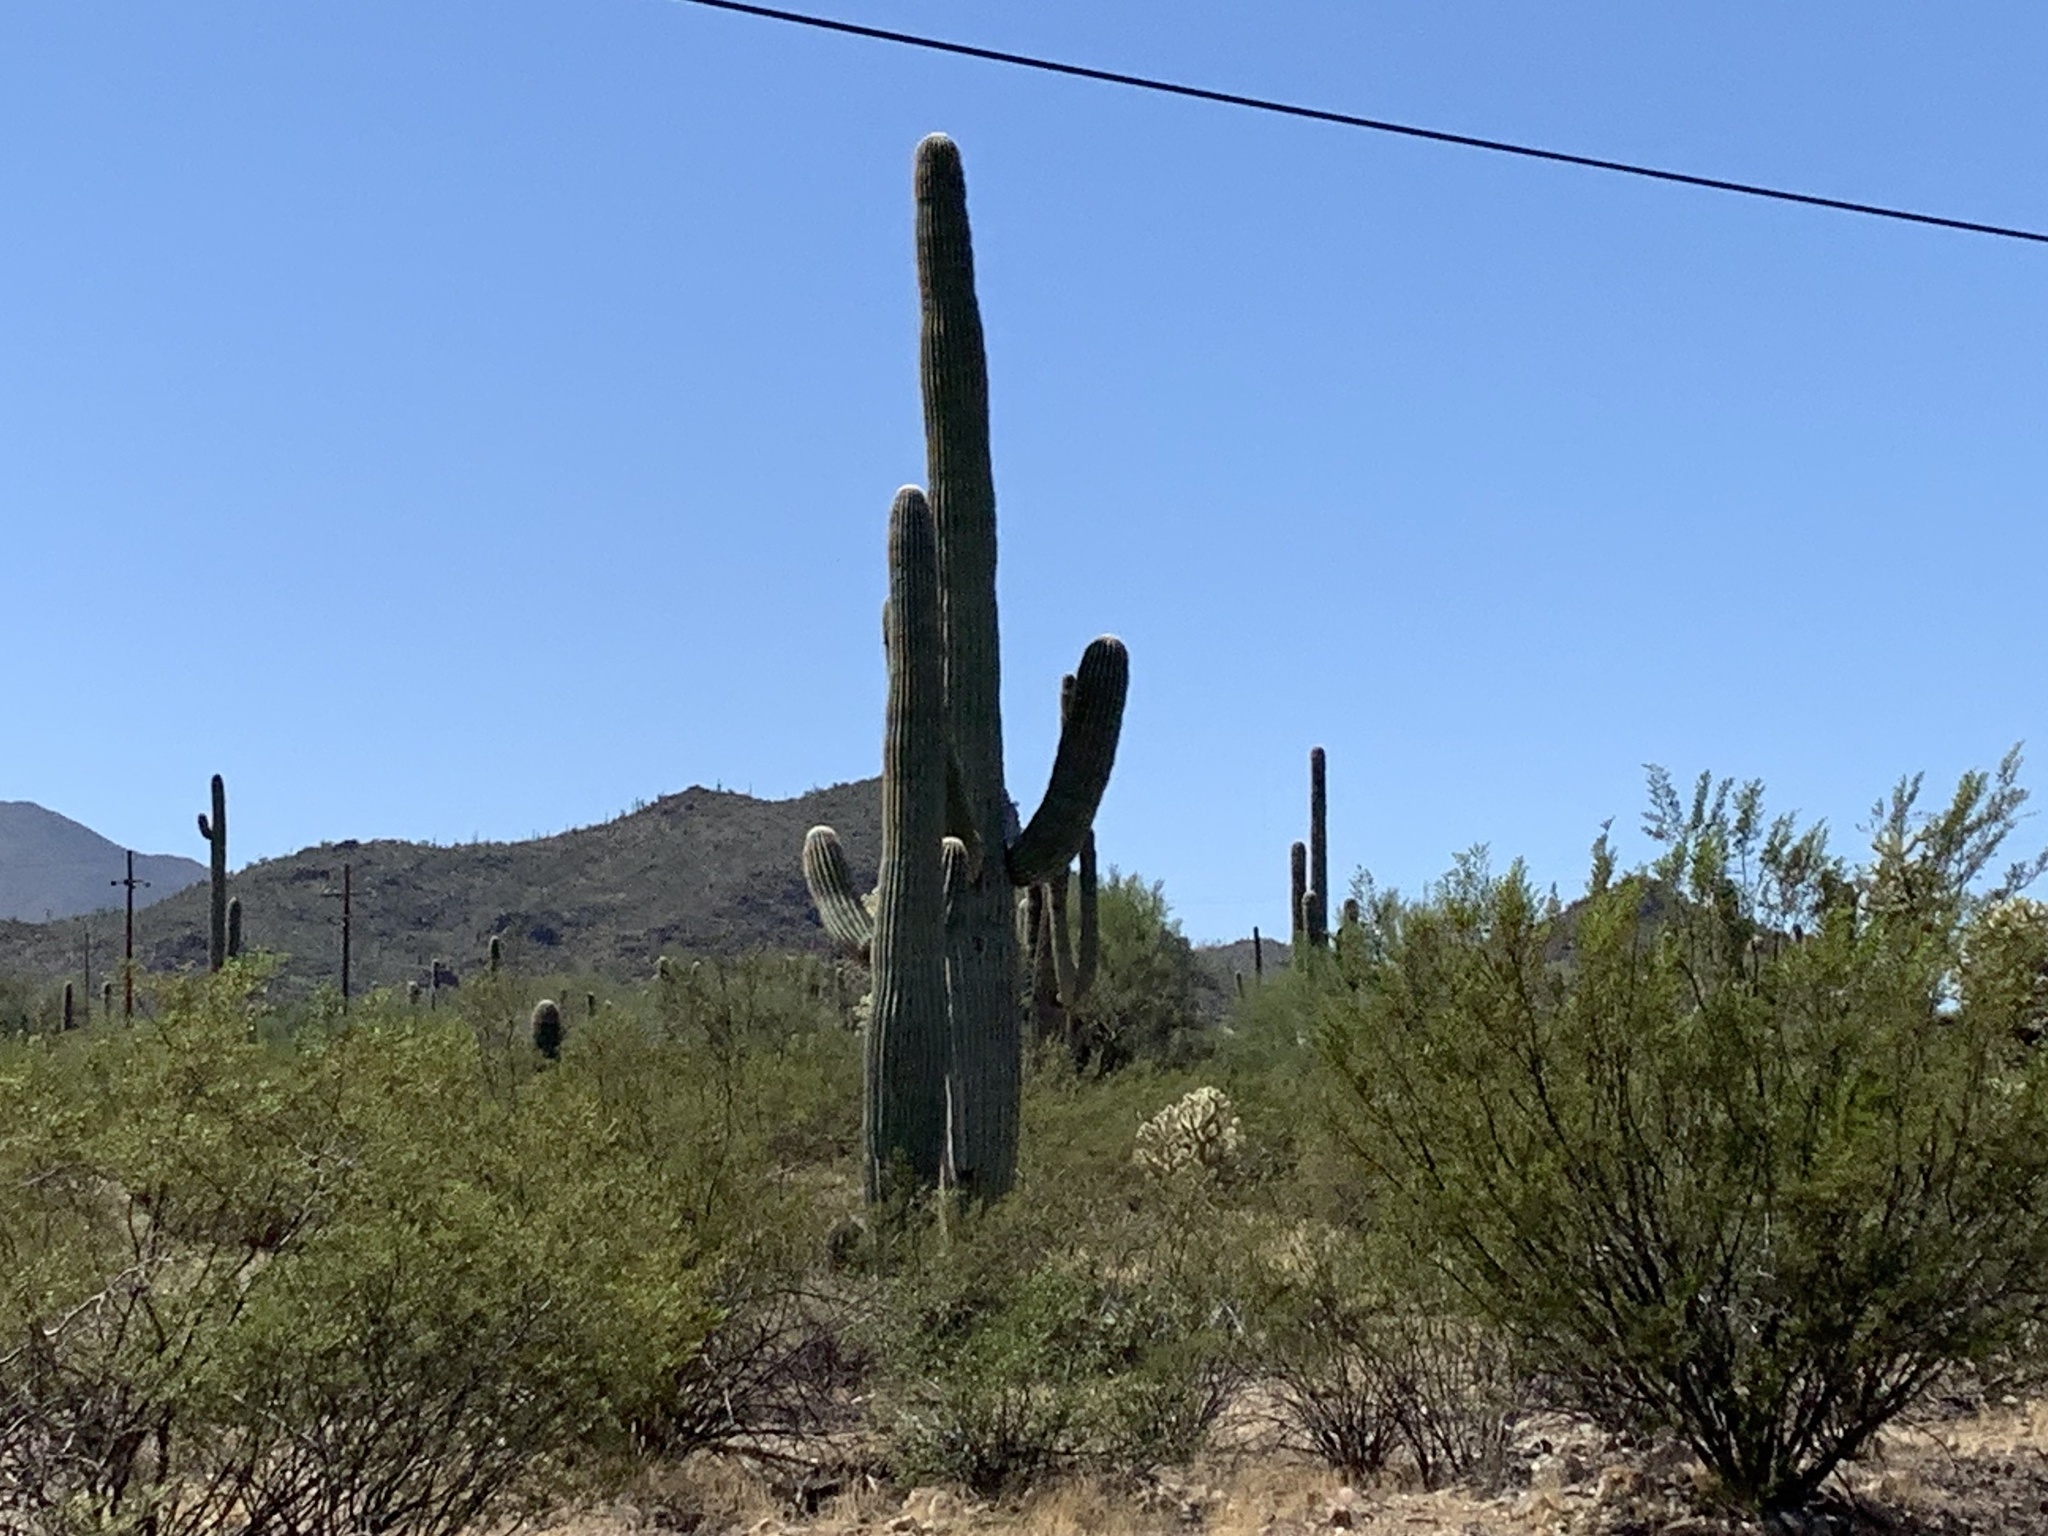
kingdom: Plantae
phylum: Tracheophyta
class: Magnoliopsida
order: Caryophyllales
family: Cactaceae
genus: Carnegiea
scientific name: Carnegiea gigantea
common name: Saguaro
